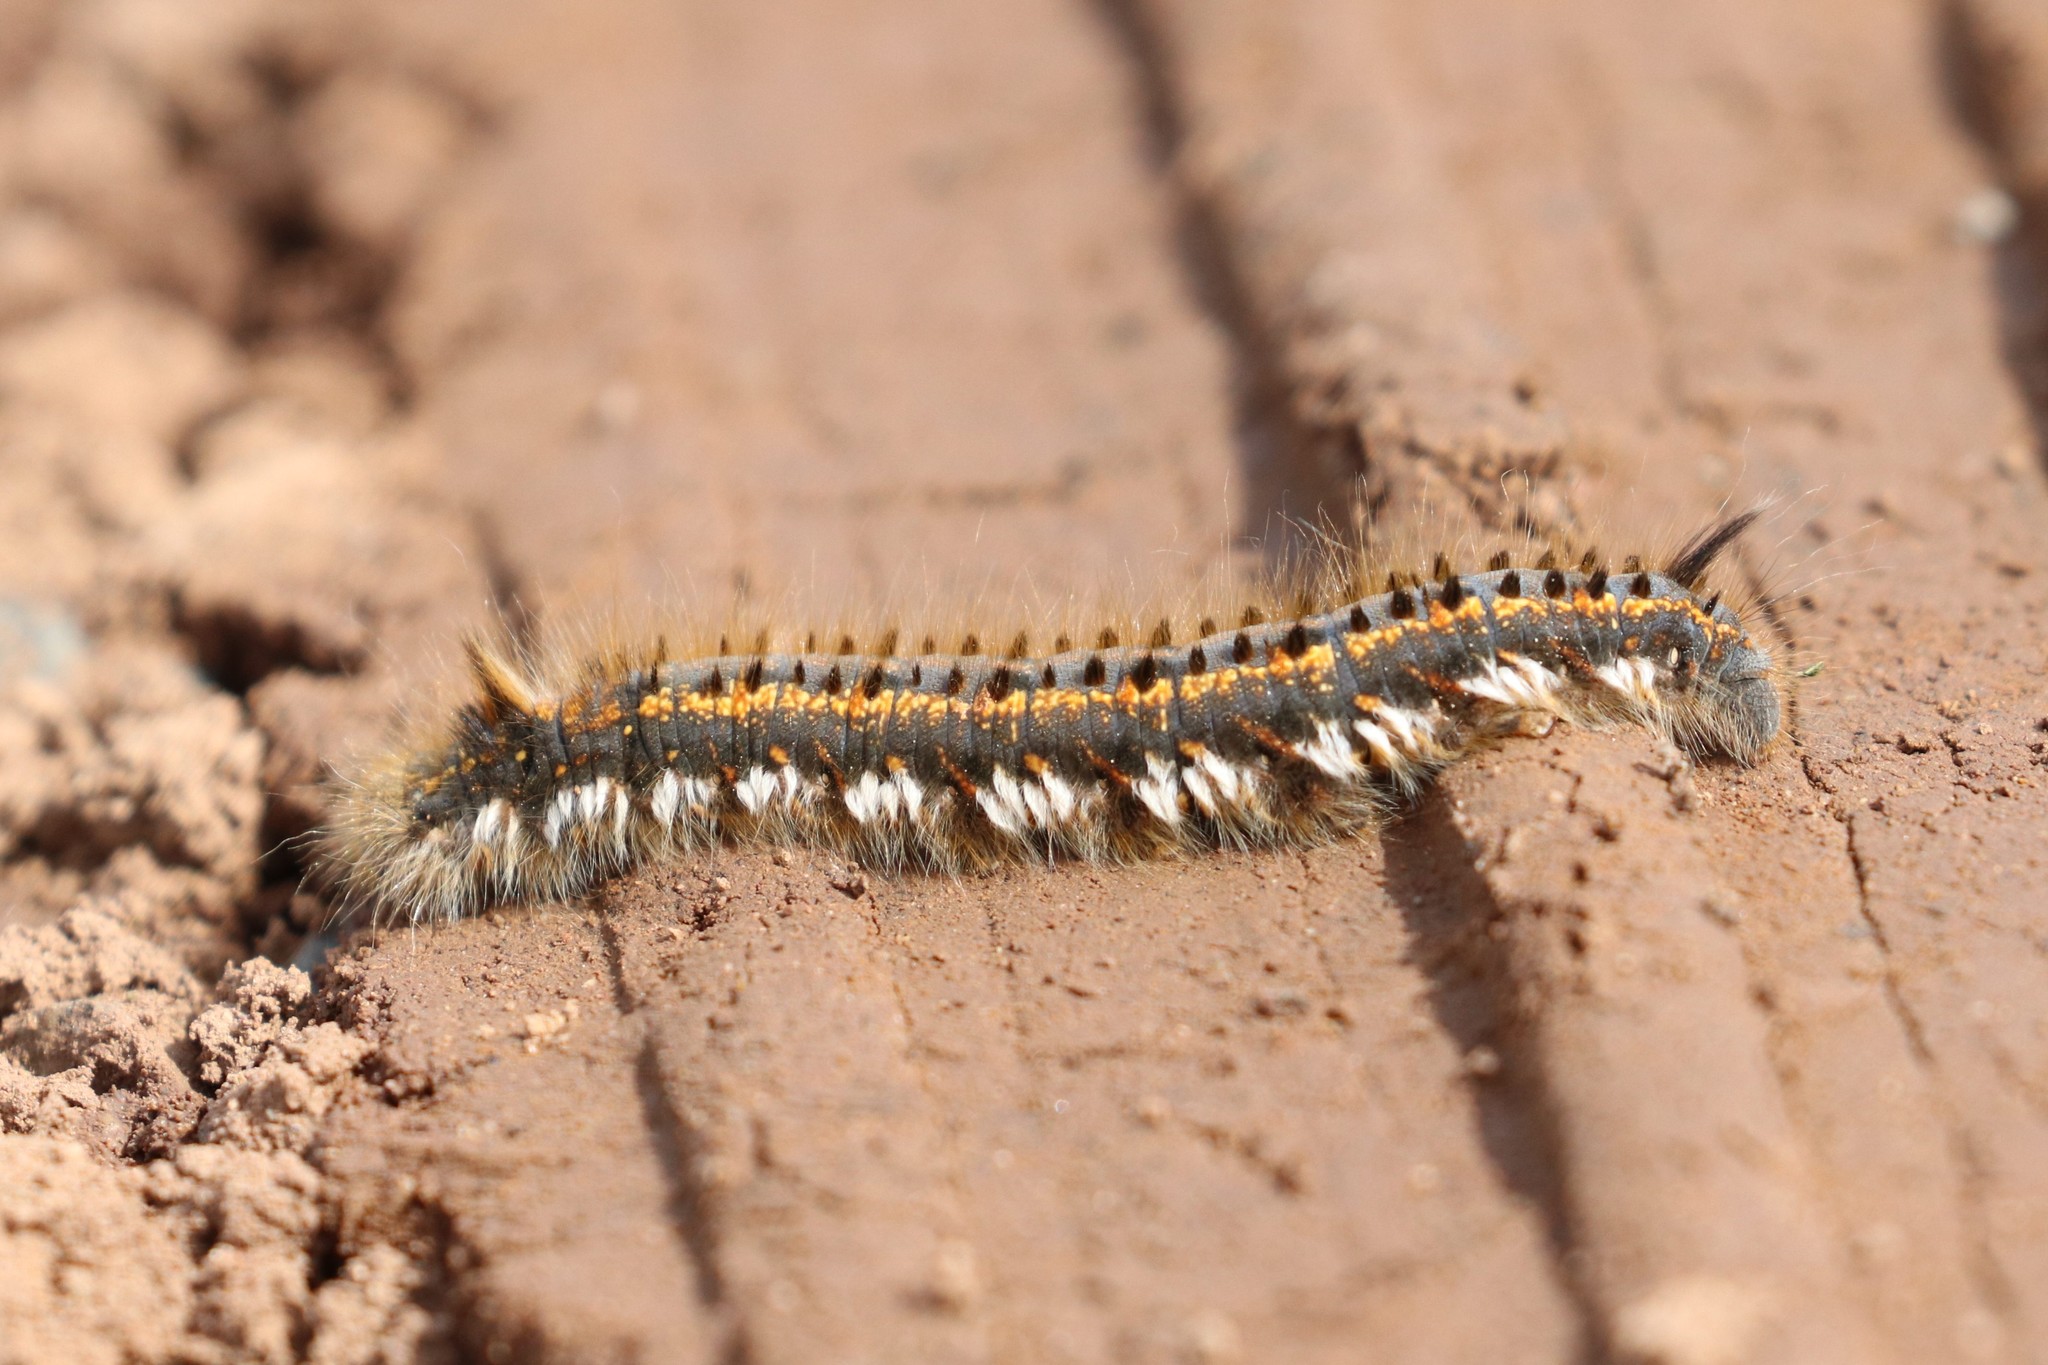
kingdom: Animalia
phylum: Arthropoda
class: Insecta
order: Lepidoptera
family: Lasiocampidae
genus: Euthrix
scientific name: Euthrix potatoria
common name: Drinker
